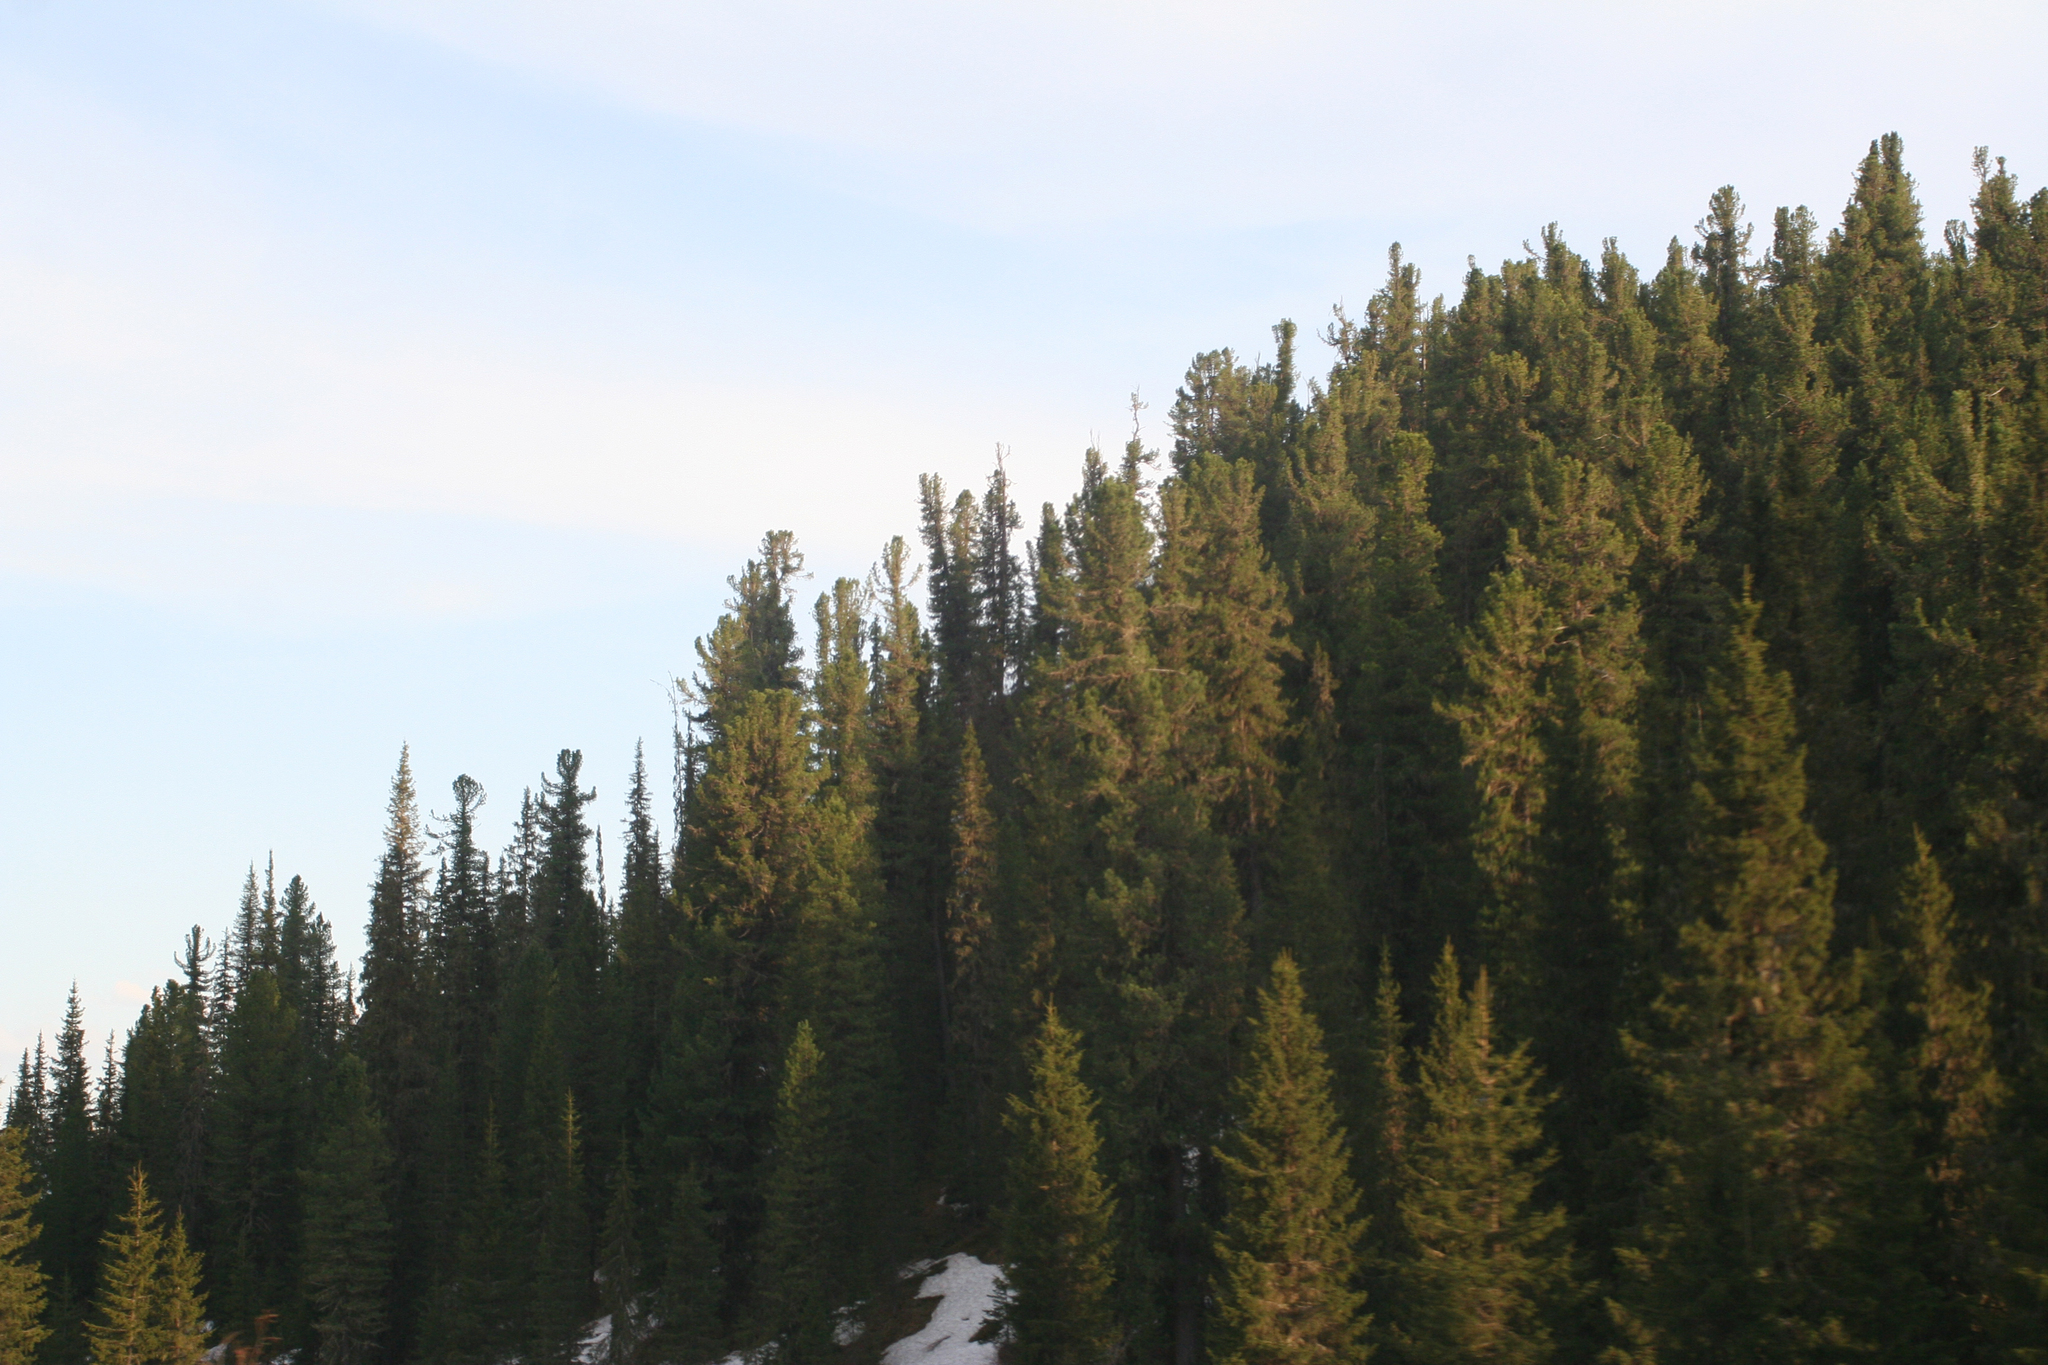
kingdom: Plantae
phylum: Tracheophyta
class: Pinopsida
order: Pinales
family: Pinaceae
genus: Pinus
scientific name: Pinus sibirica
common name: Siberian pine
